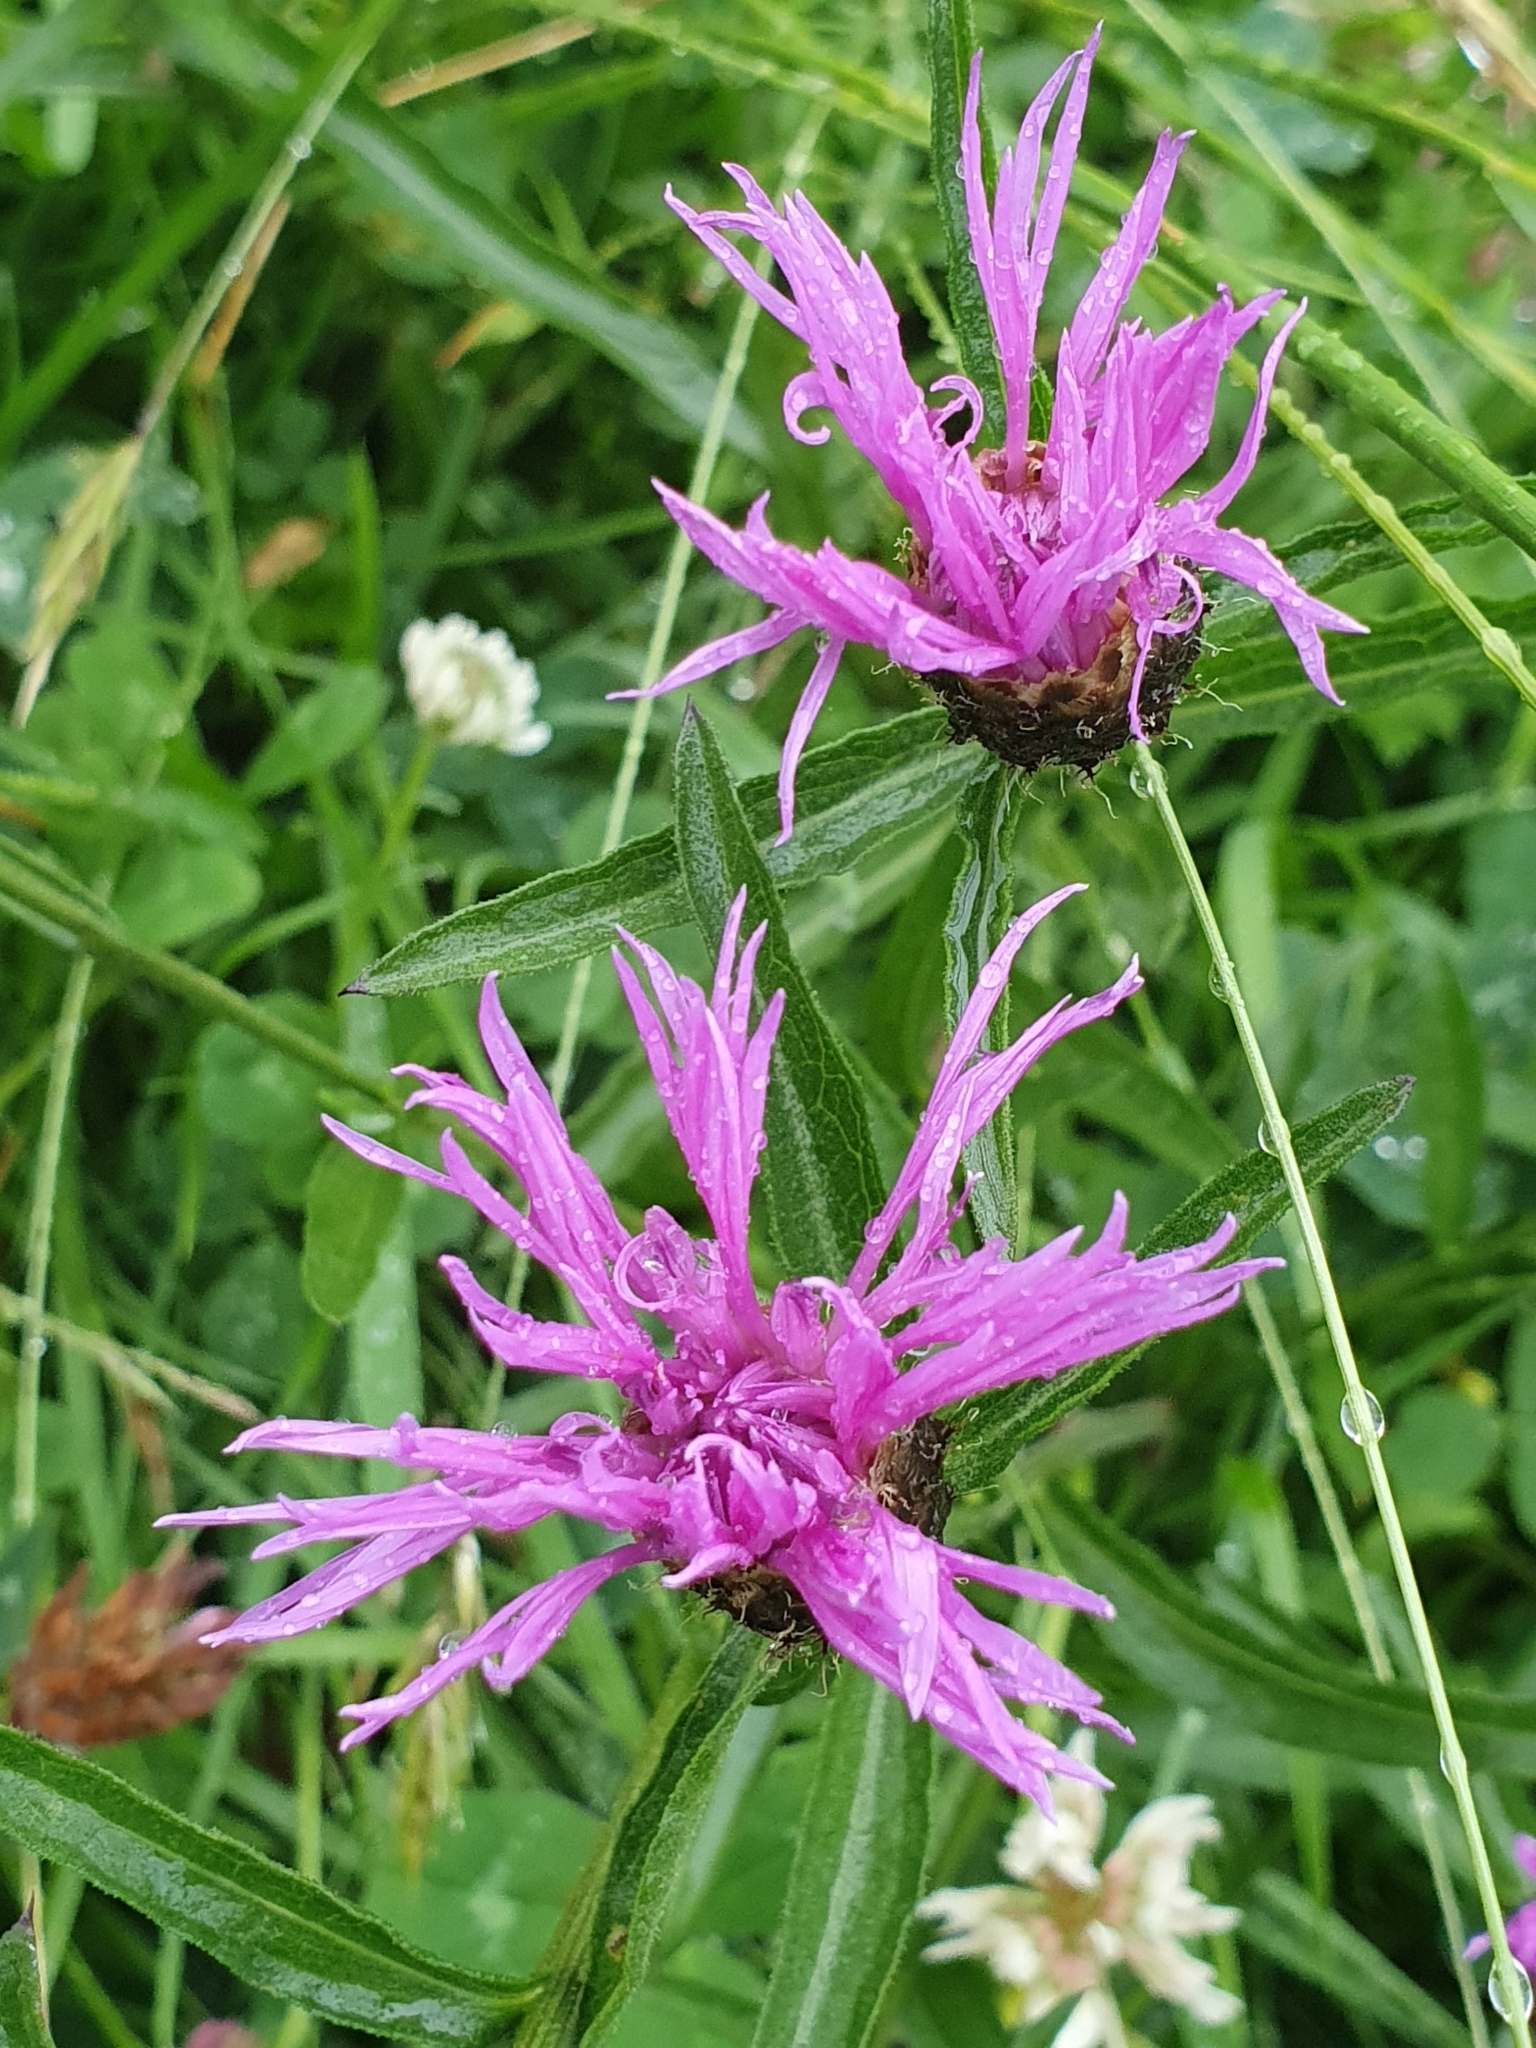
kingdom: Plantae
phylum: Tracheophyta
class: Magnoliopsida
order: Asterales
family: Asteraceae
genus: Centaurea
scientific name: Centaurea nigra
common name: Lesser knapweed
